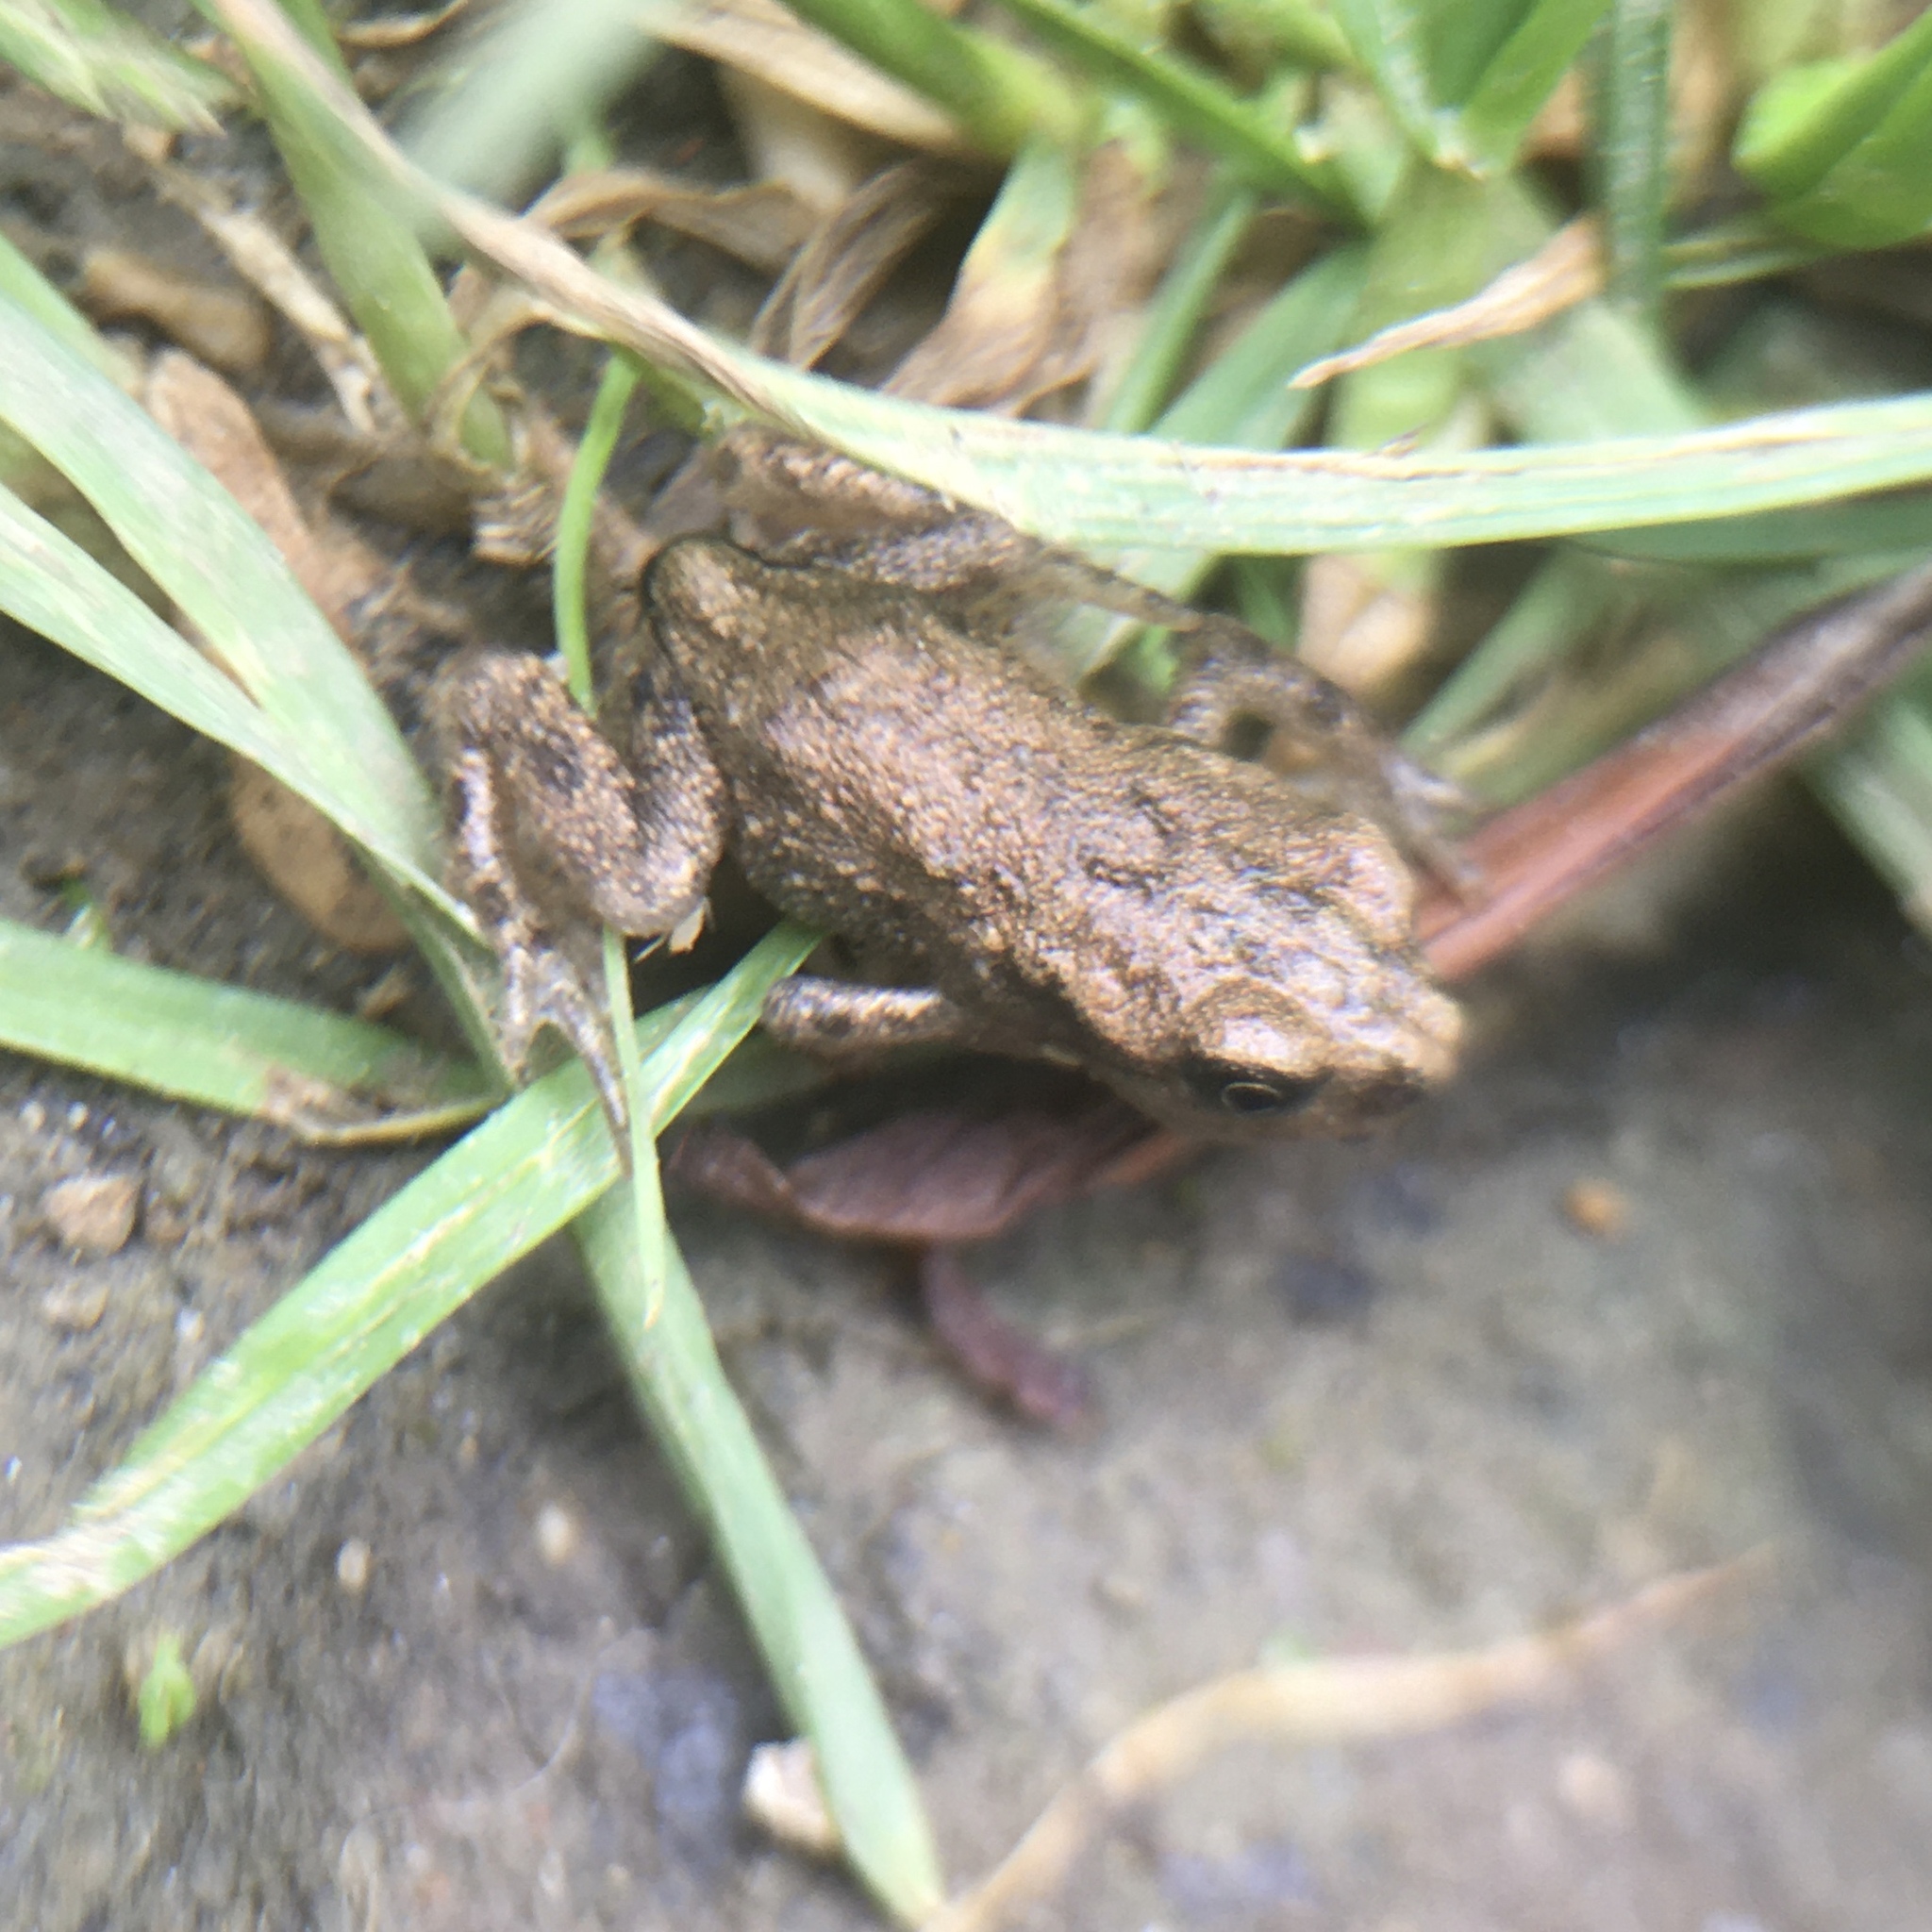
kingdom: Animalia
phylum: Chordata
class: Amphibia
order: Anura
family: Bufonidae
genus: Bufo
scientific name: Bufo bufo
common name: Common toad
